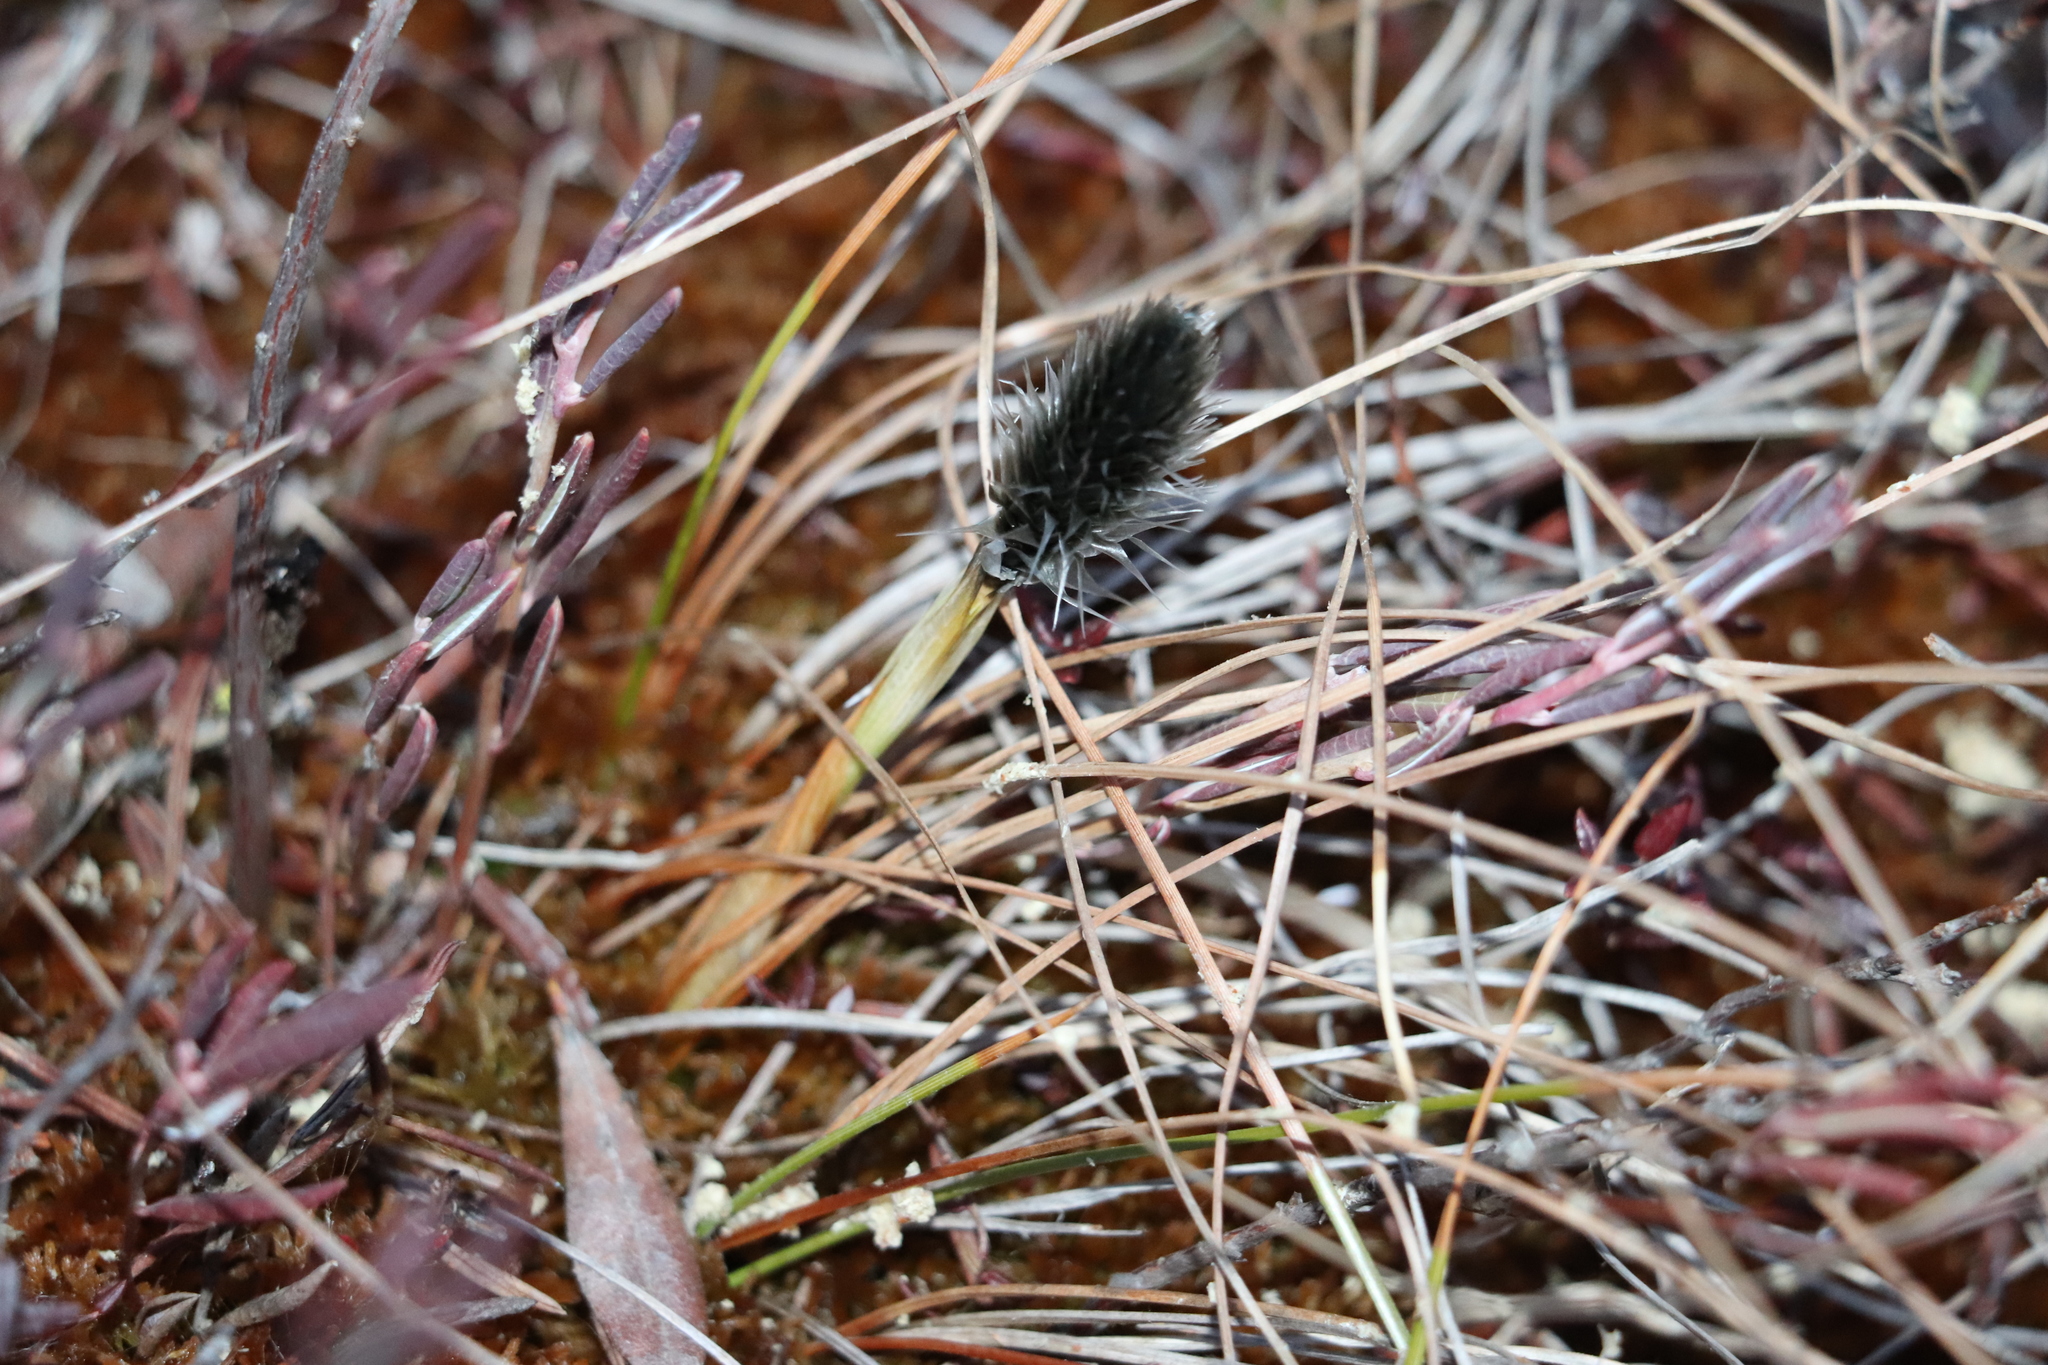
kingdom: Plantae
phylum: Tracheophyta
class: Liliopsida
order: Poales
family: Cyperaceae
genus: Eriophorum
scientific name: Eriophorum vaginatum
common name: Hare's-tail cottongrass
